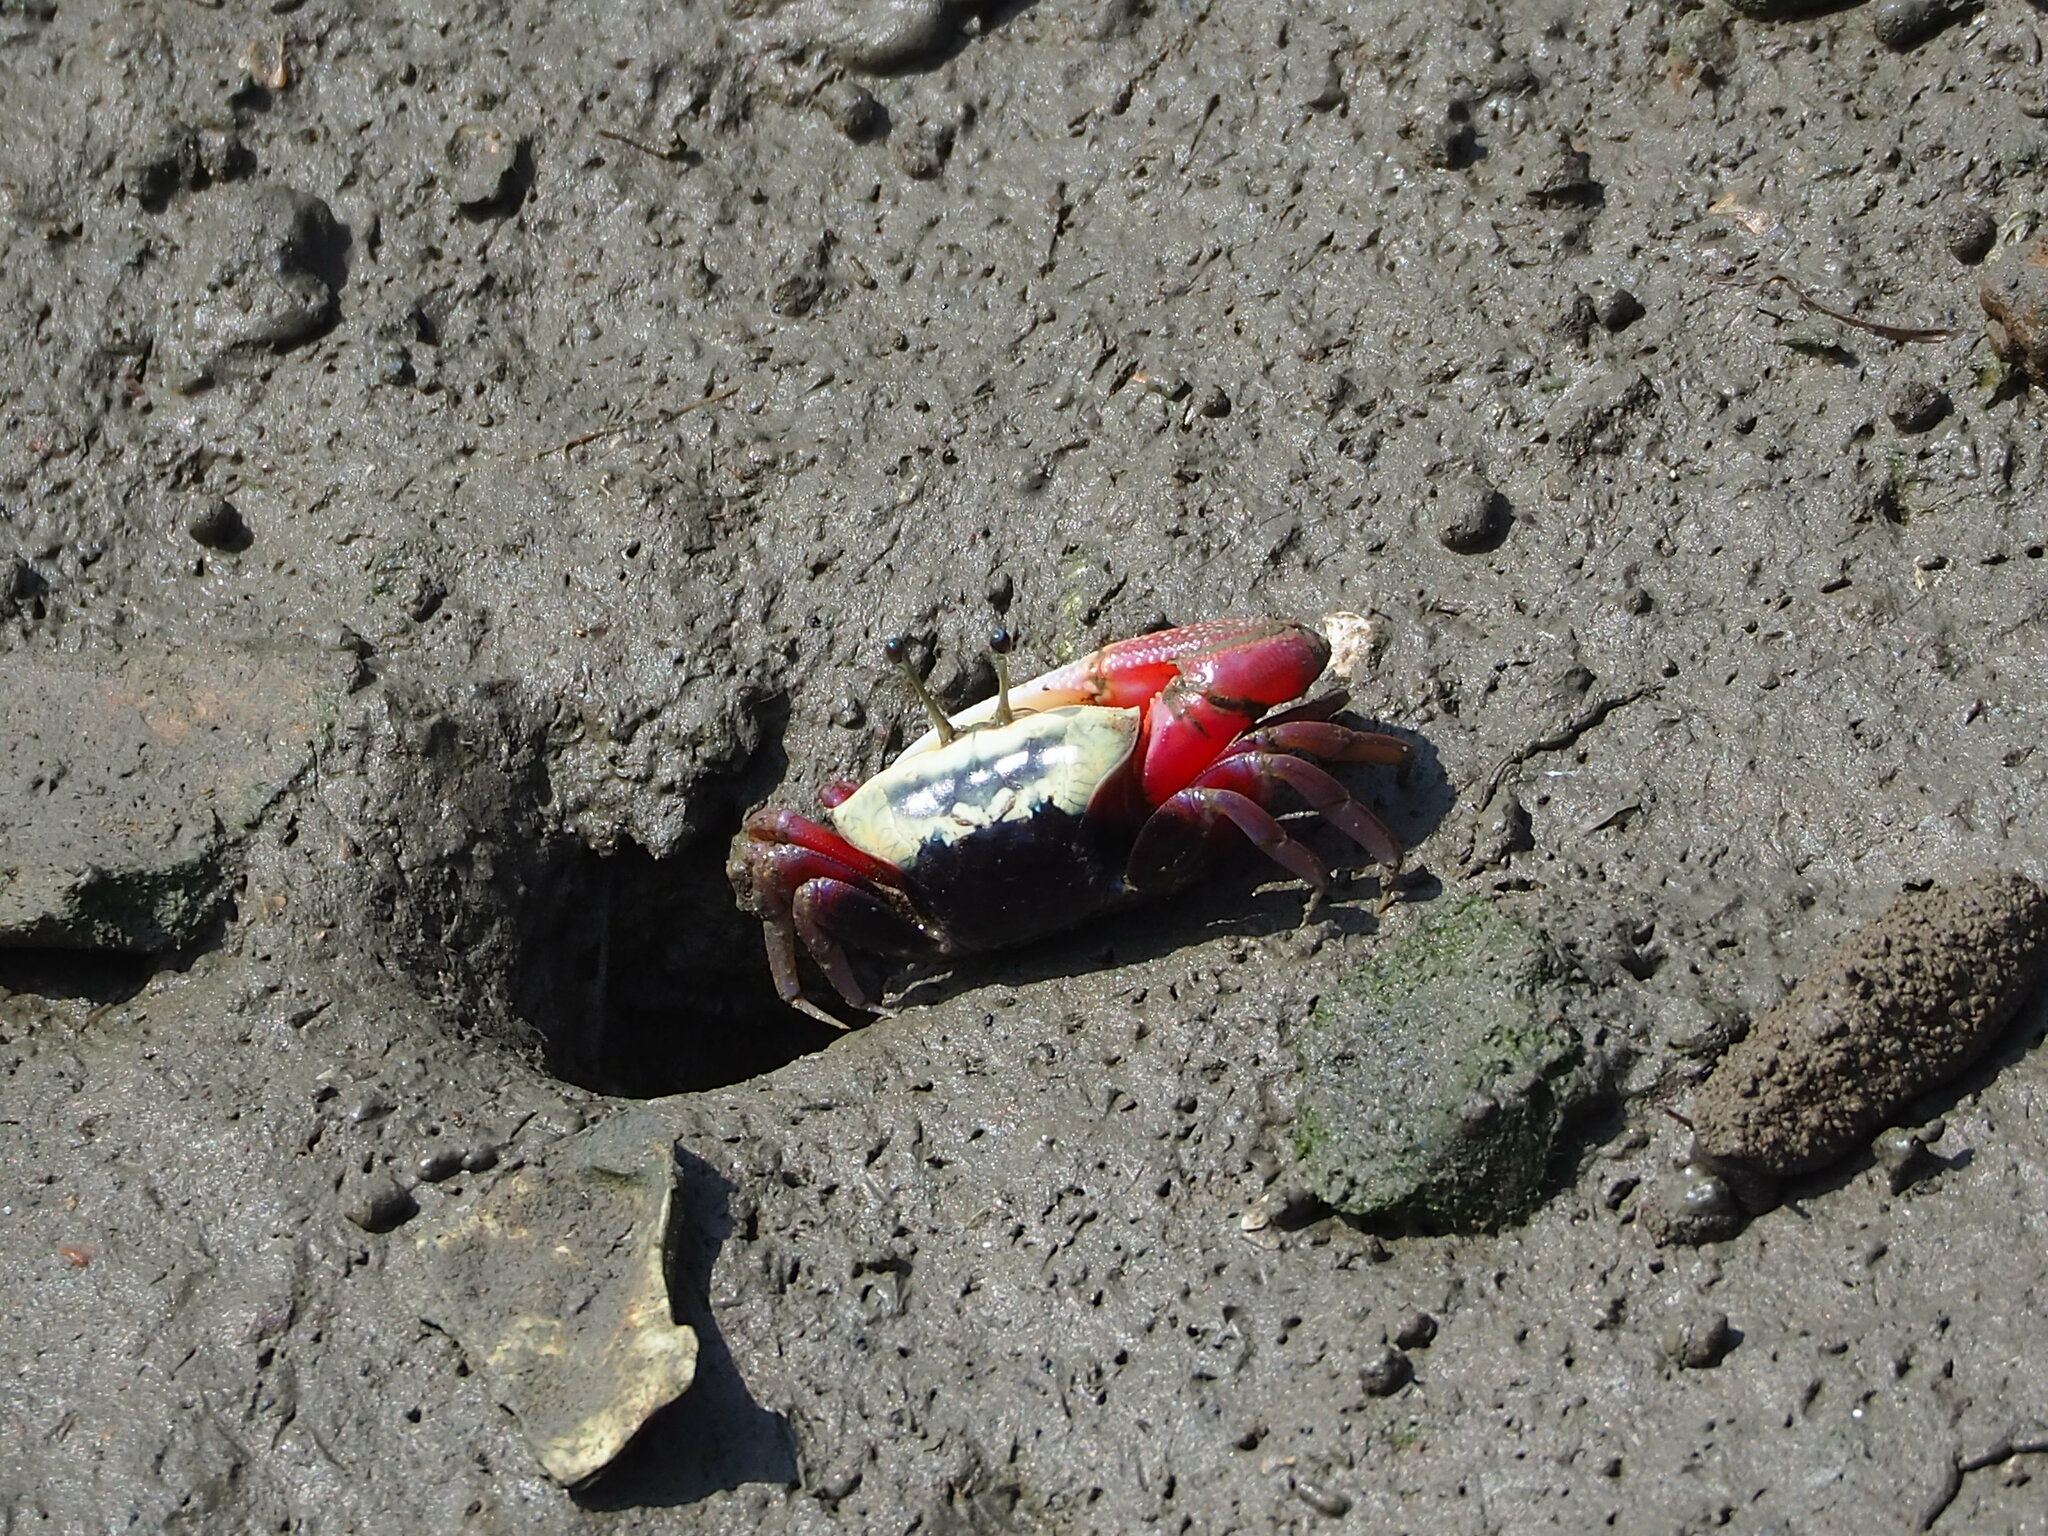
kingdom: Animalia
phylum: Arthropoda
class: Malacostraca
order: Decapoda
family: Ocypodidae
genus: Tubuca
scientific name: Tubuca arcuata
